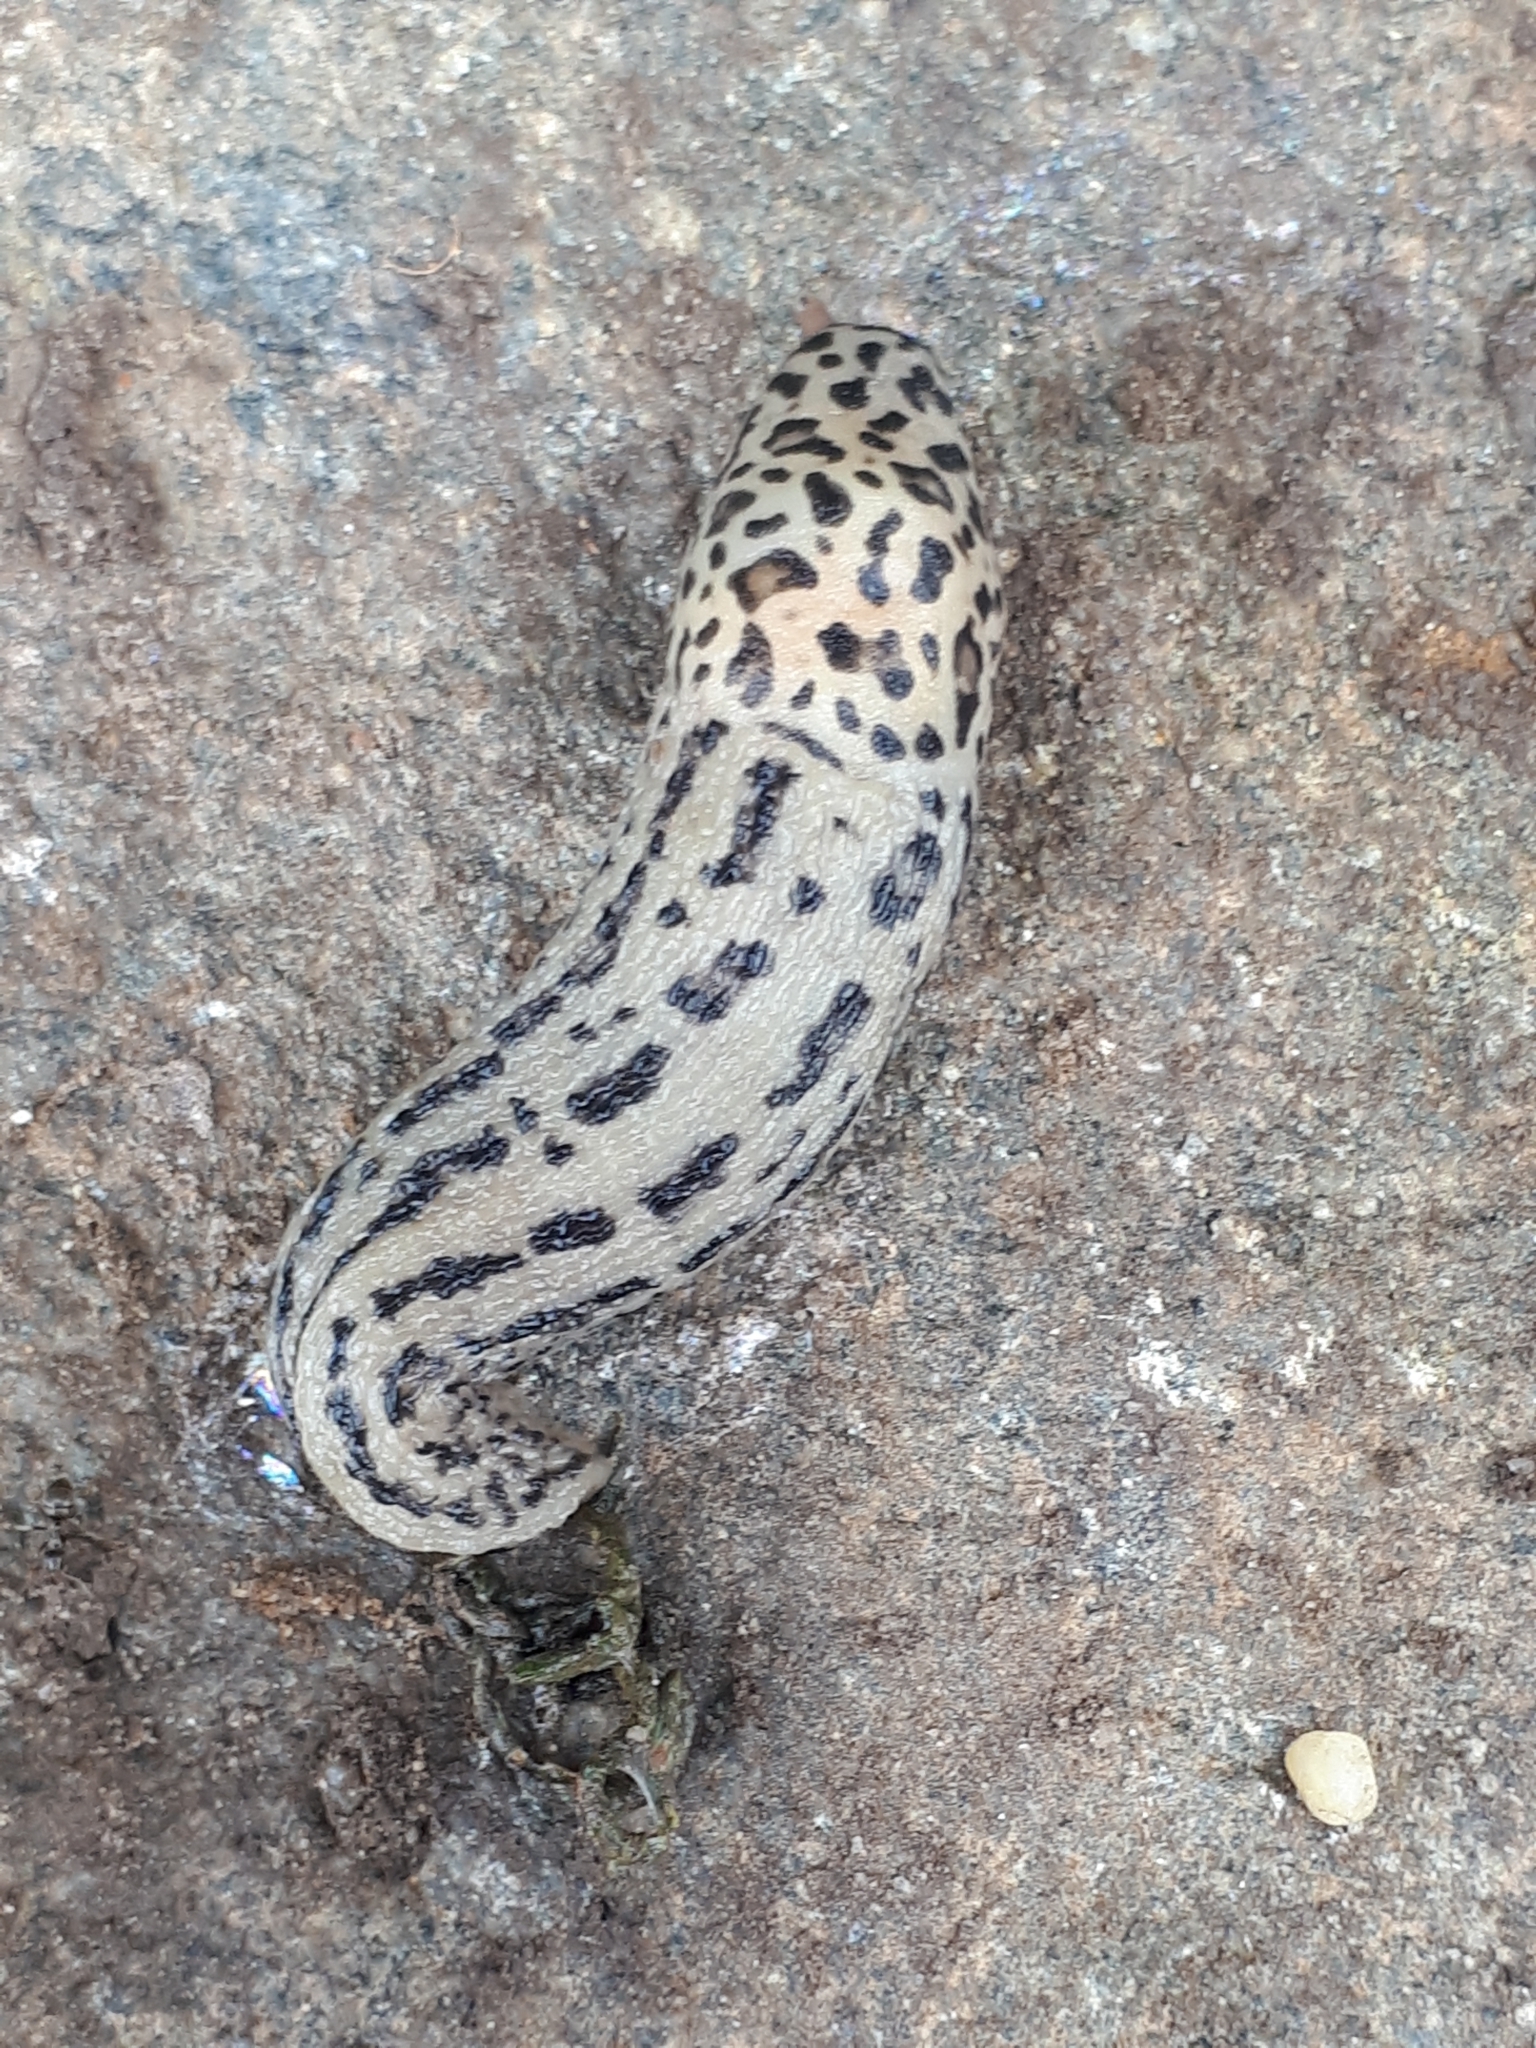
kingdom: Animalia
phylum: Mollusca
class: Gastropoda
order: Stylommatophora
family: Limacidae
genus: Limax
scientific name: Limax maximus
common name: Great grey slug
